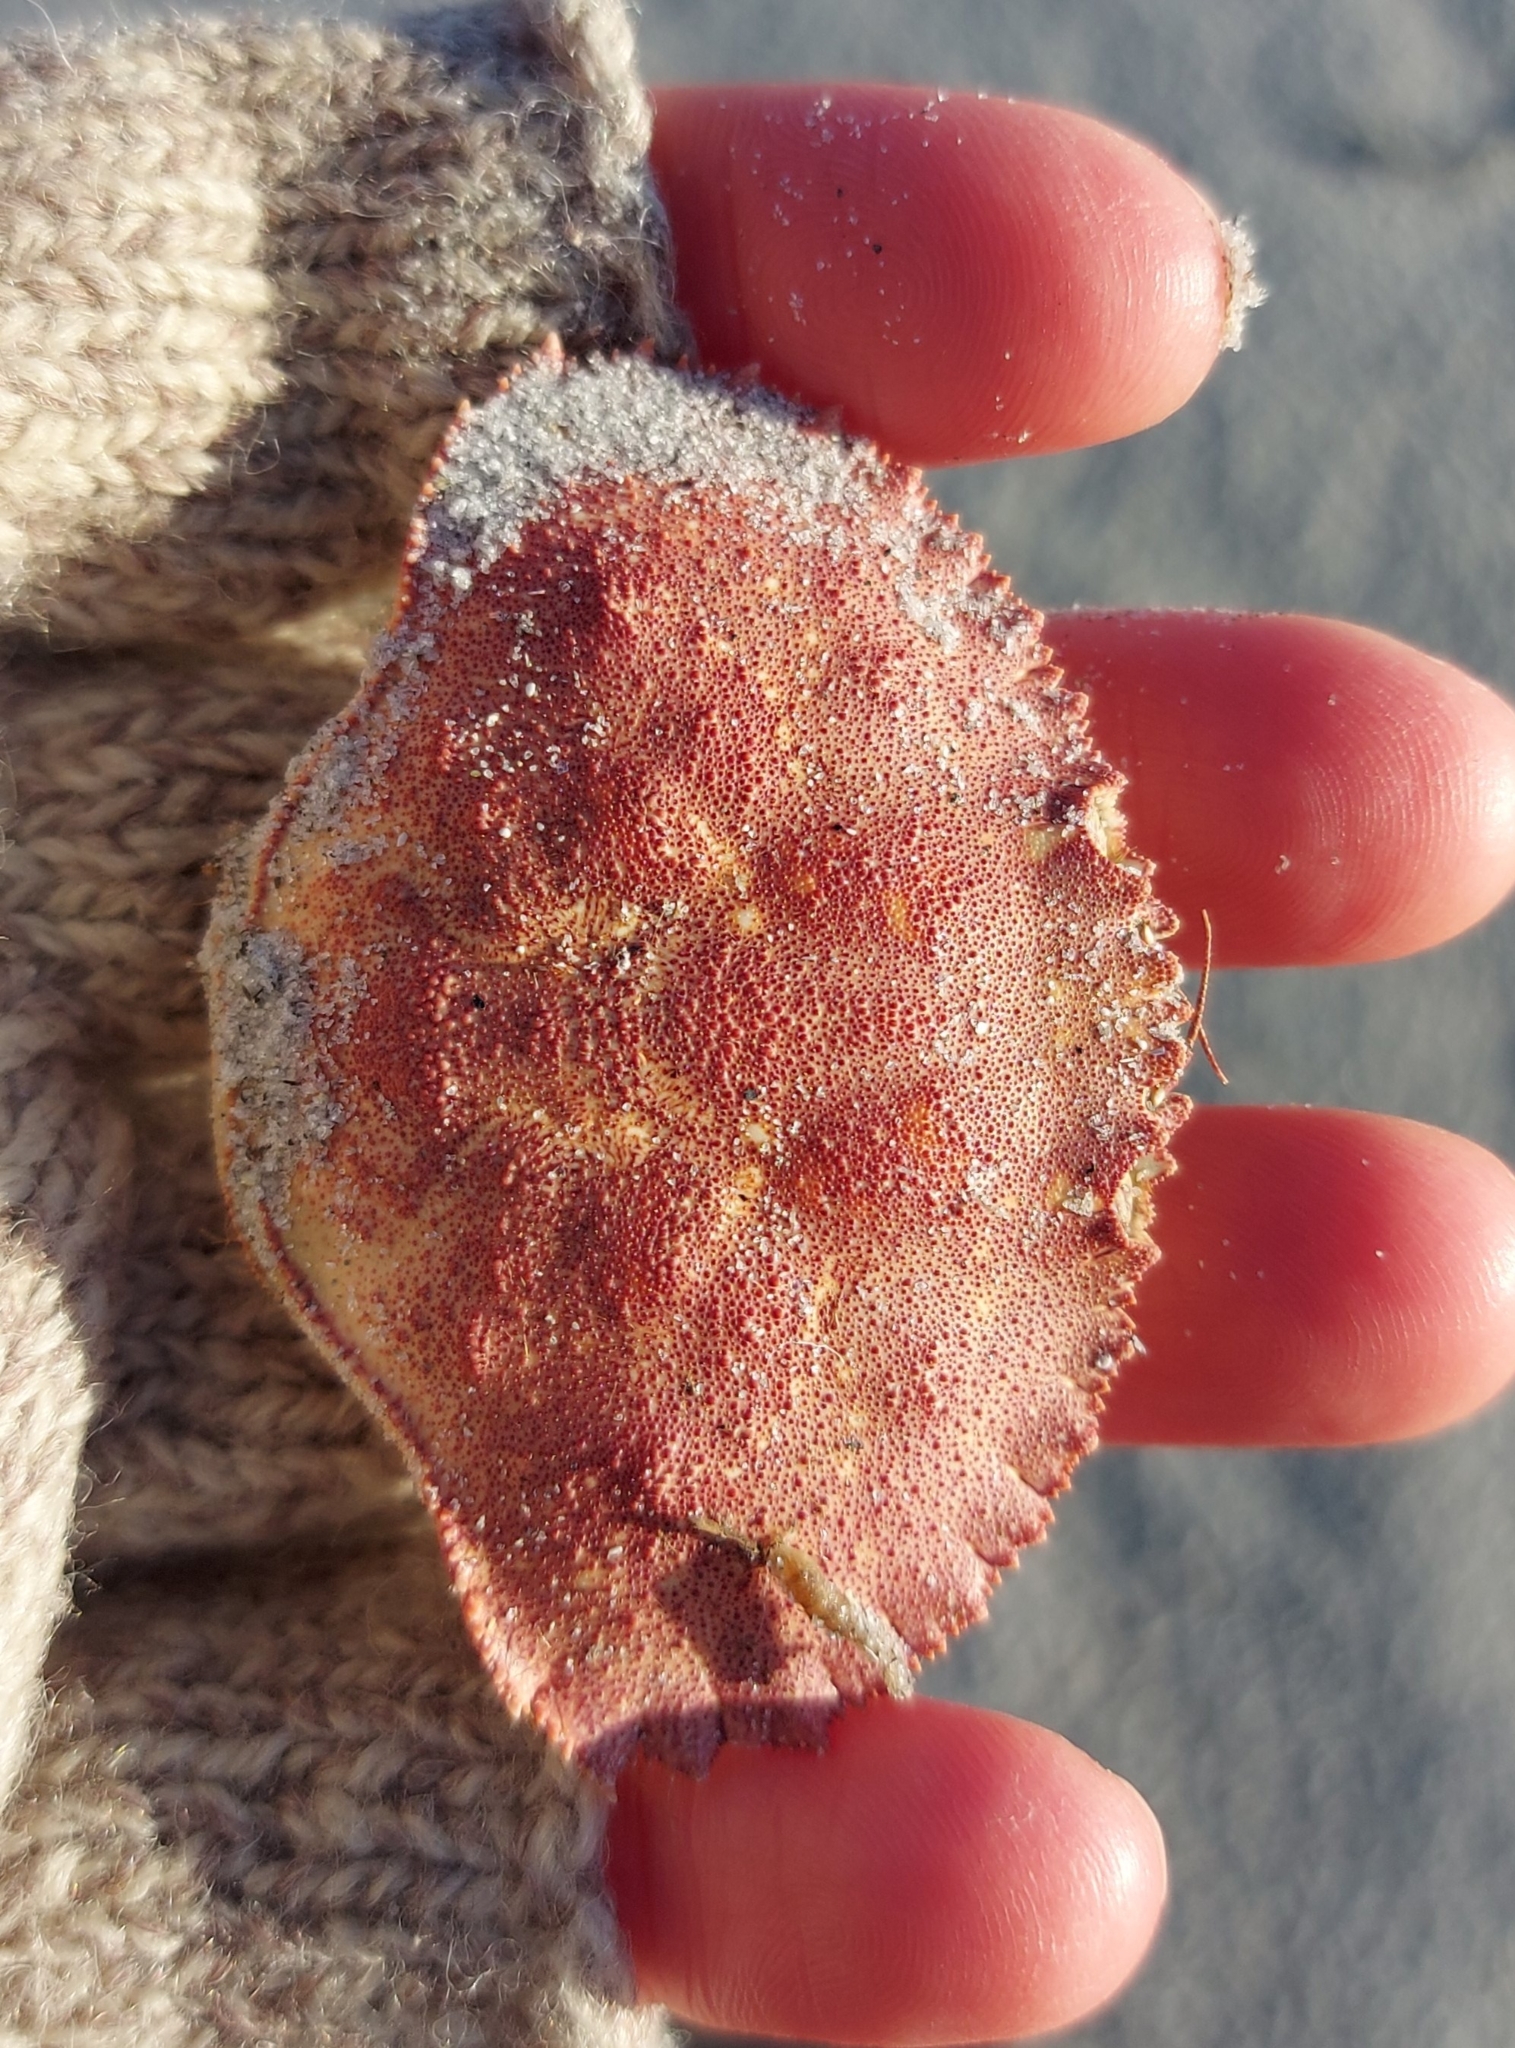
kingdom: Animalia
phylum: Arthropoda
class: Malacostraca
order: Decapoda
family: Cancridae
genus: Cancer
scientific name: Cancer borealis
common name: Jonah crab
